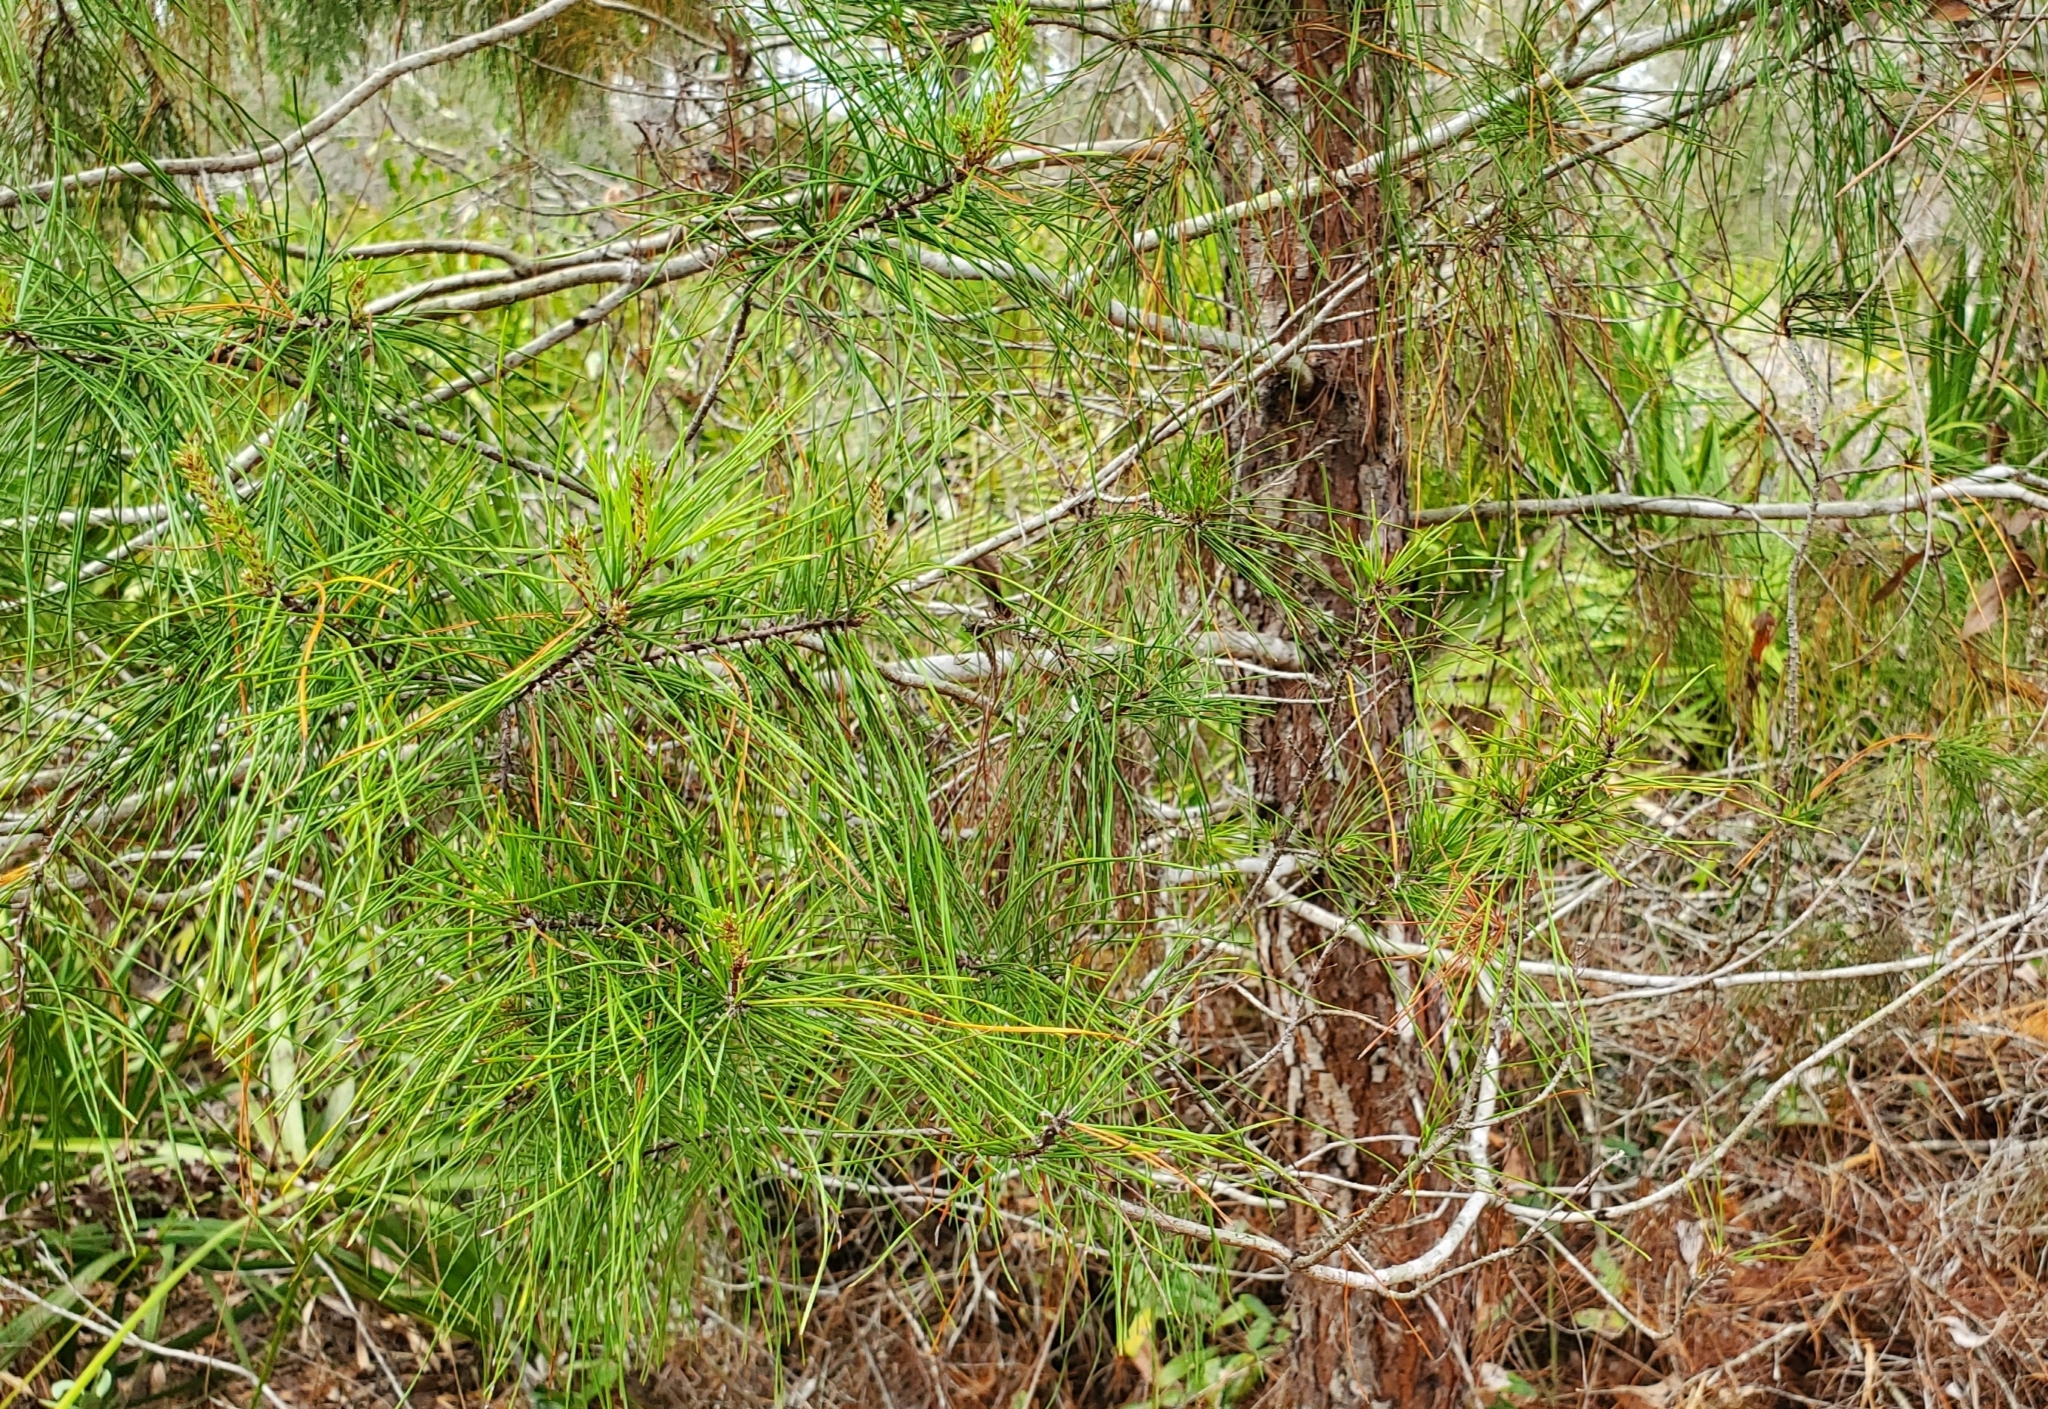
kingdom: Plantae
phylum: Tracheophyta
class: Pinopsida
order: Pinales
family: Pinaceae
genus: Pinus
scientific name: Pinus clausa
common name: Sand pine
